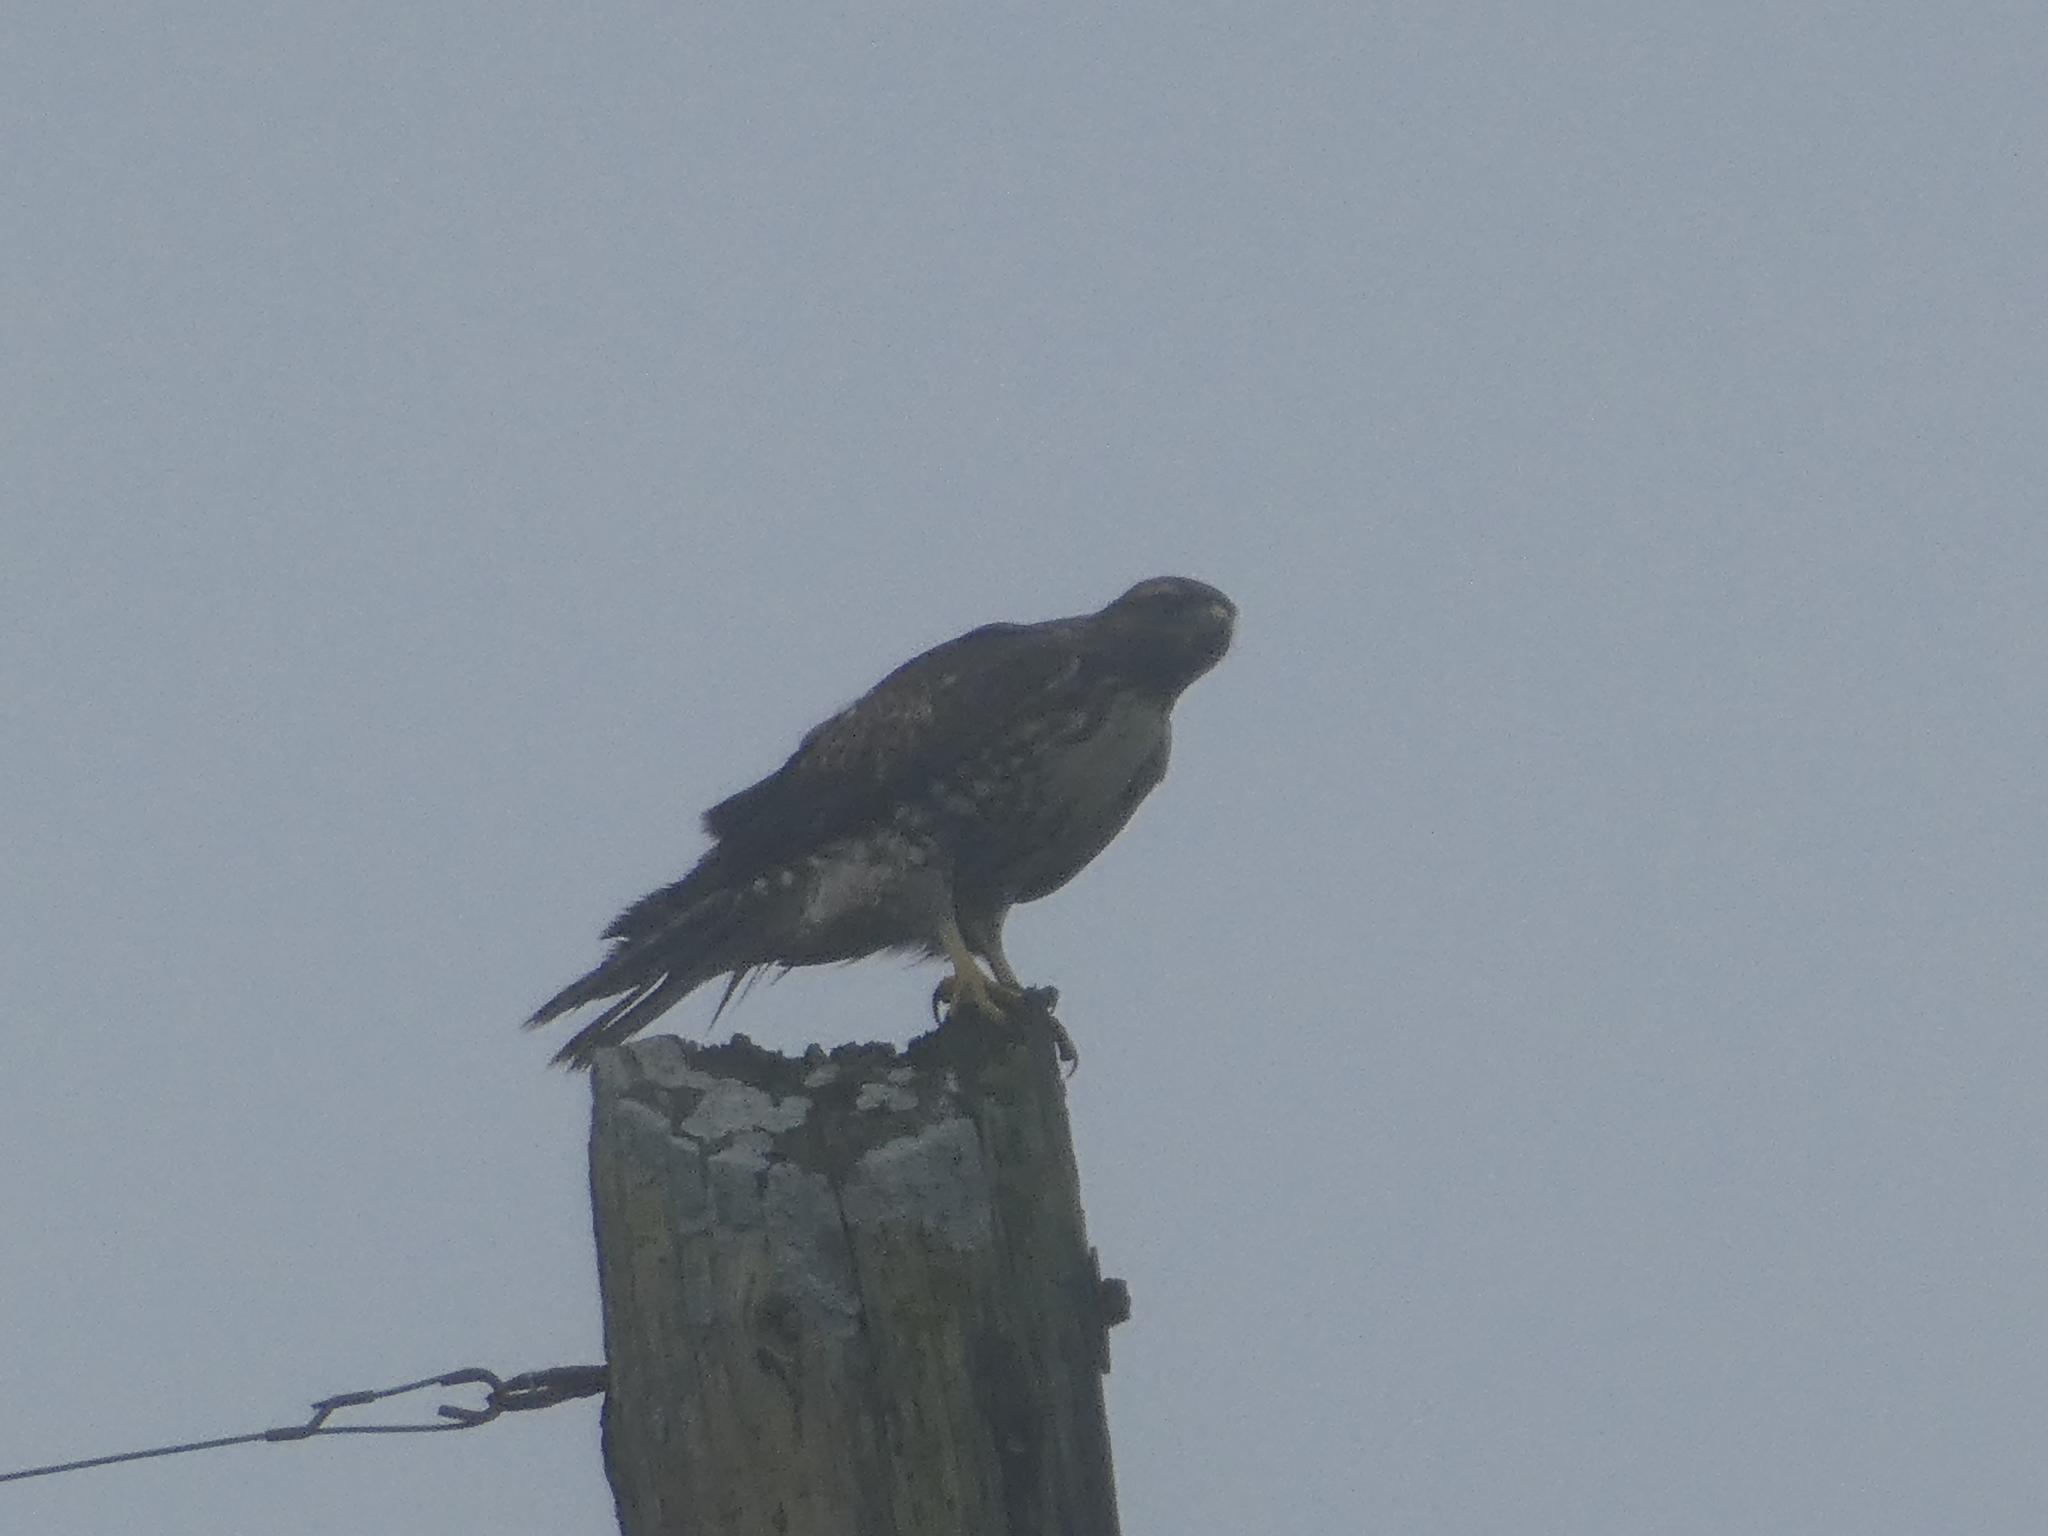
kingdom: Animalia
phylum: Chordata
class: Aves
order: Accipitriformes
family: Accipitridae
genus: Buteo
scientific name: Buteo jamaicensis
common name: Red-tailed hawk
